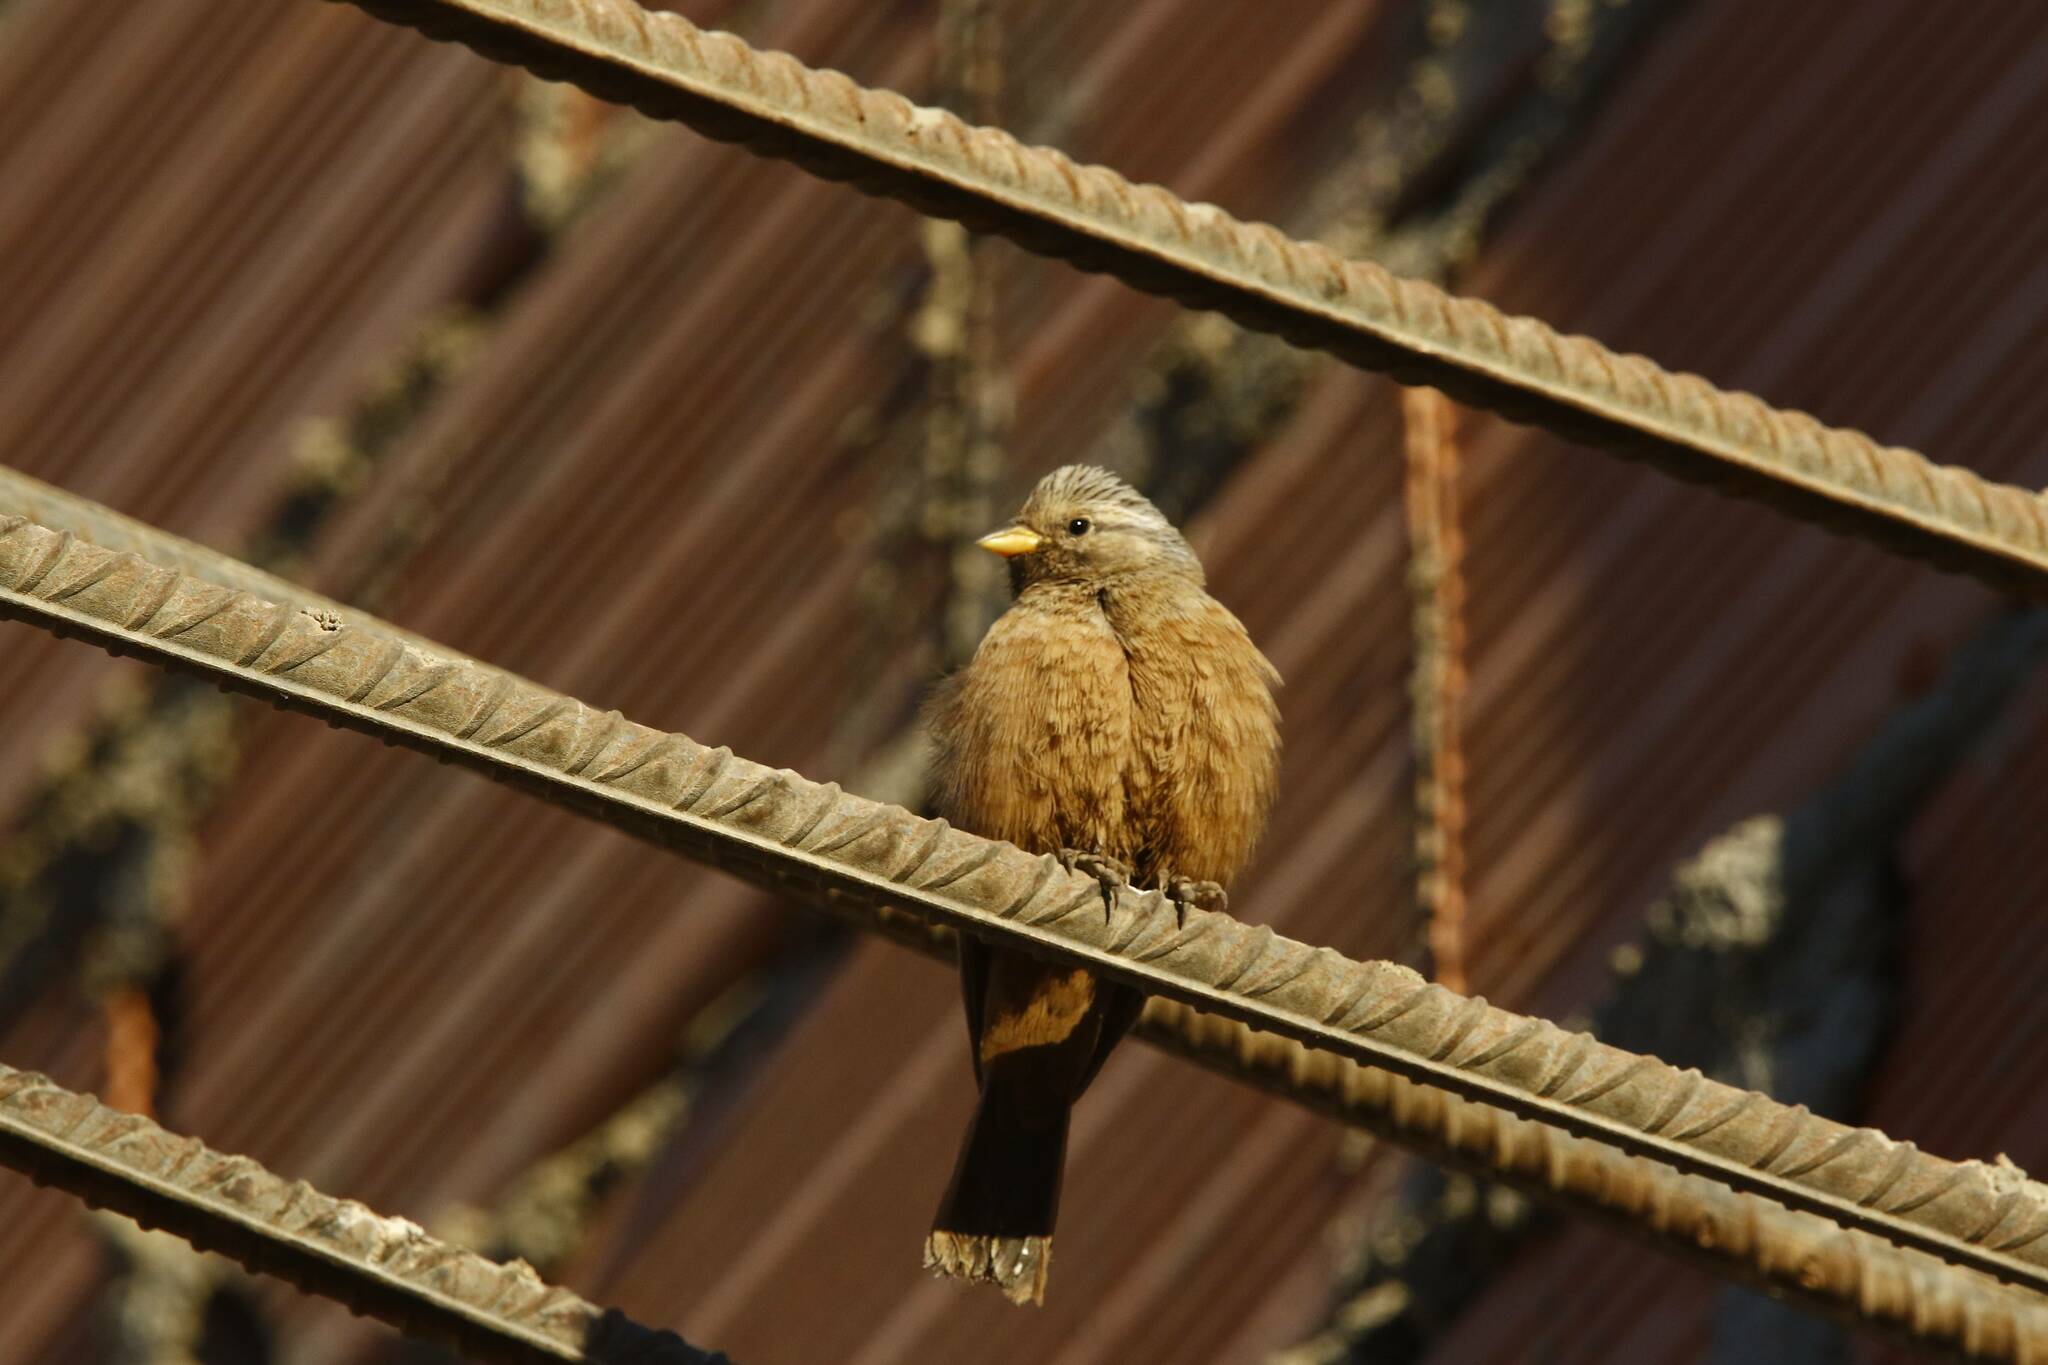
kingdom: Animalia
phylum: Chordata
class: Aves
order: Passeriformes
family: Emberizidae
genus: Emberiza
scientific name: Emberiza sahari
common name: House bunting
